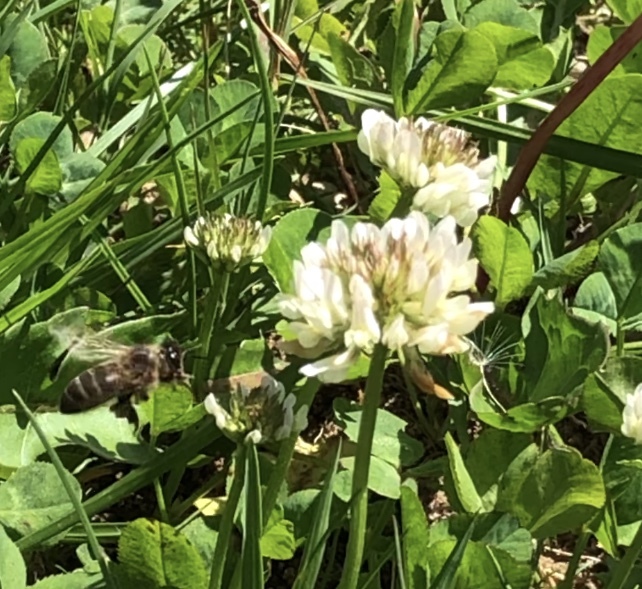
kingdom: Animalia
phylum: Arthropoda
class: Insecta
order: Hymenoptera
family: Apidae
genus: Apis
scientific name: Apis mellifera
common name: Honey bee
